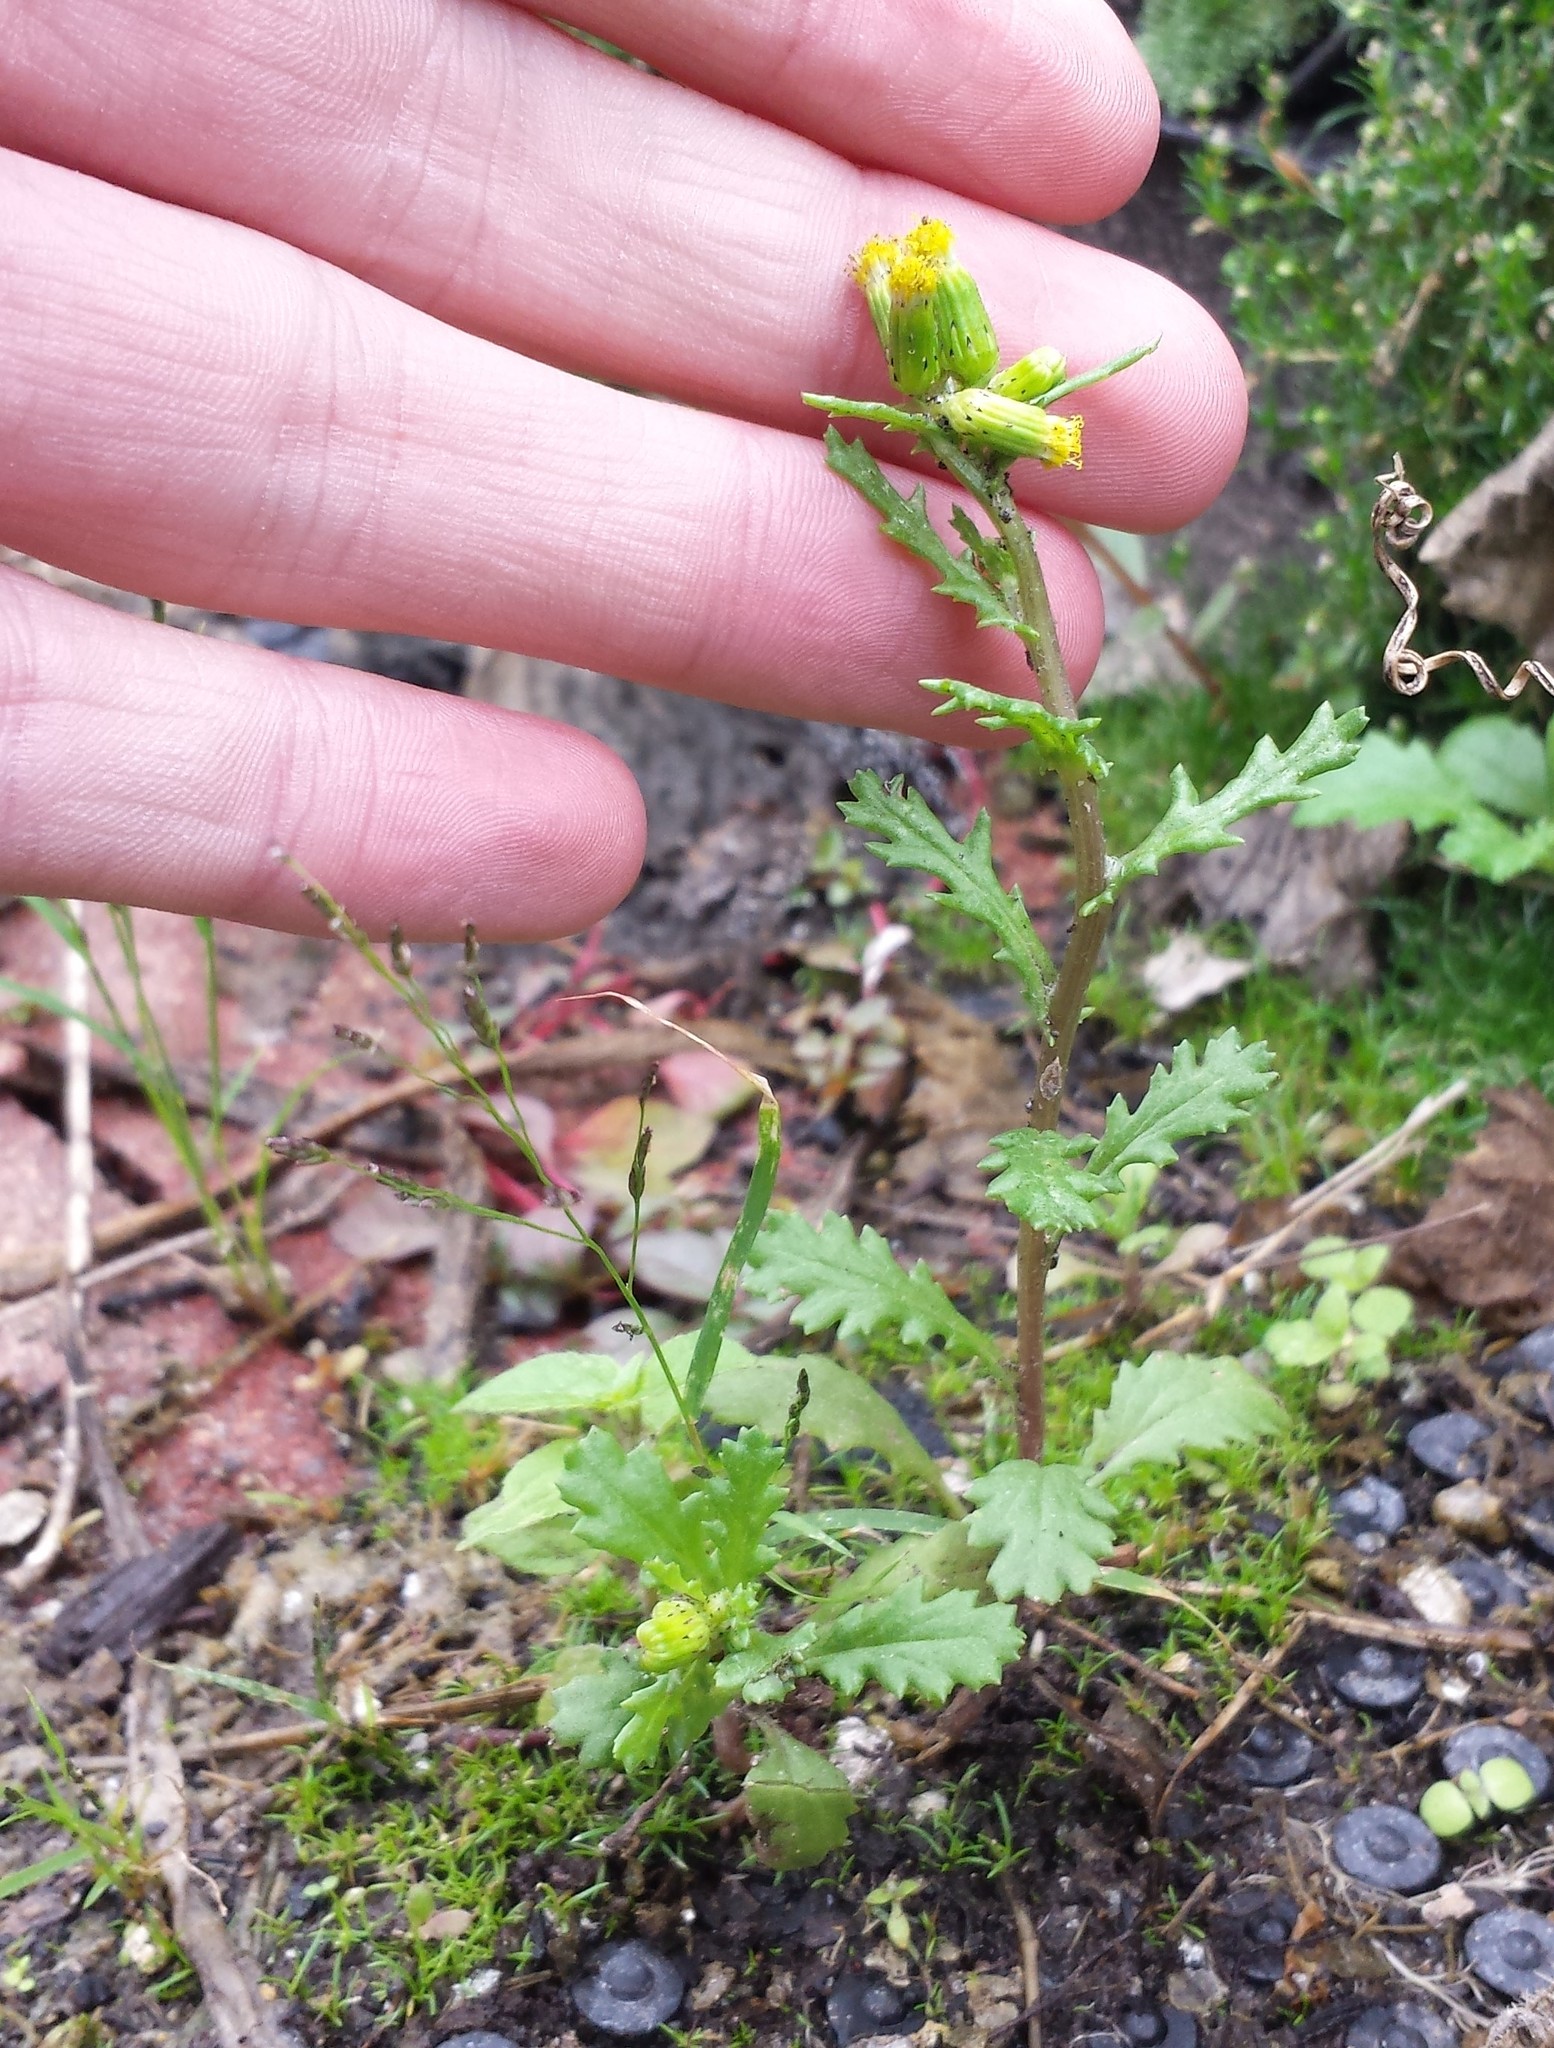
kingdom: Plantae
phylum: Tracheophyta
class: Magnoliopsida
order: Asterales
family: Asteraceae
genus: Senecio
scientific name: Senecio vulgaris
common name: Old-man-in-the-spring
